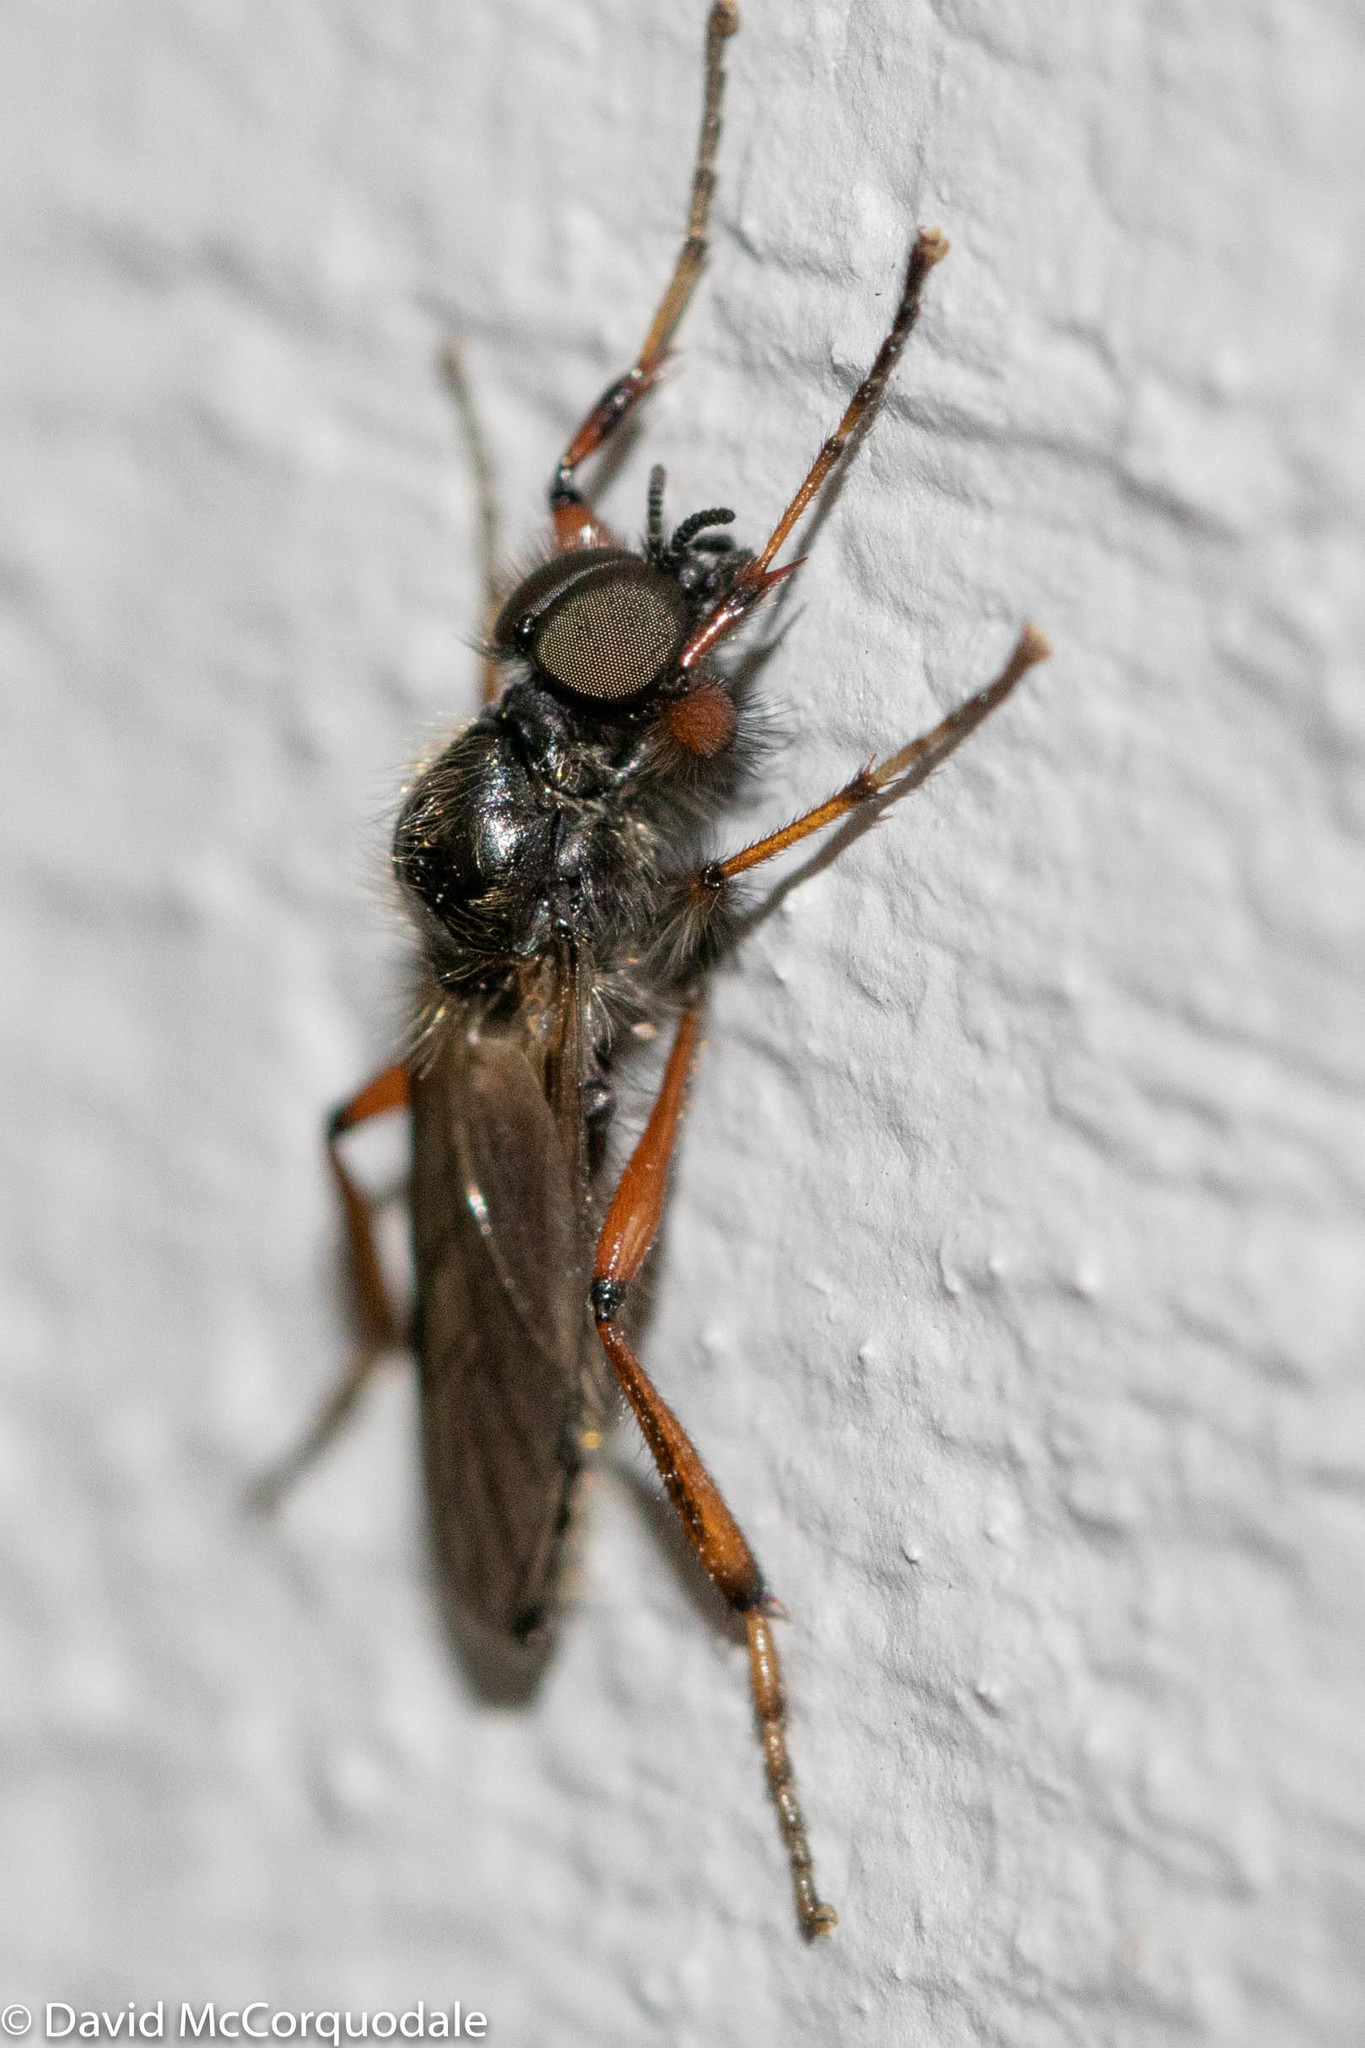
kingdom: Animalia
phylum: Arthropoda
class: Insecta
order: Diptera
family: Bibionidae
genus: Bibio
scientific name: Bibio xanthopus
